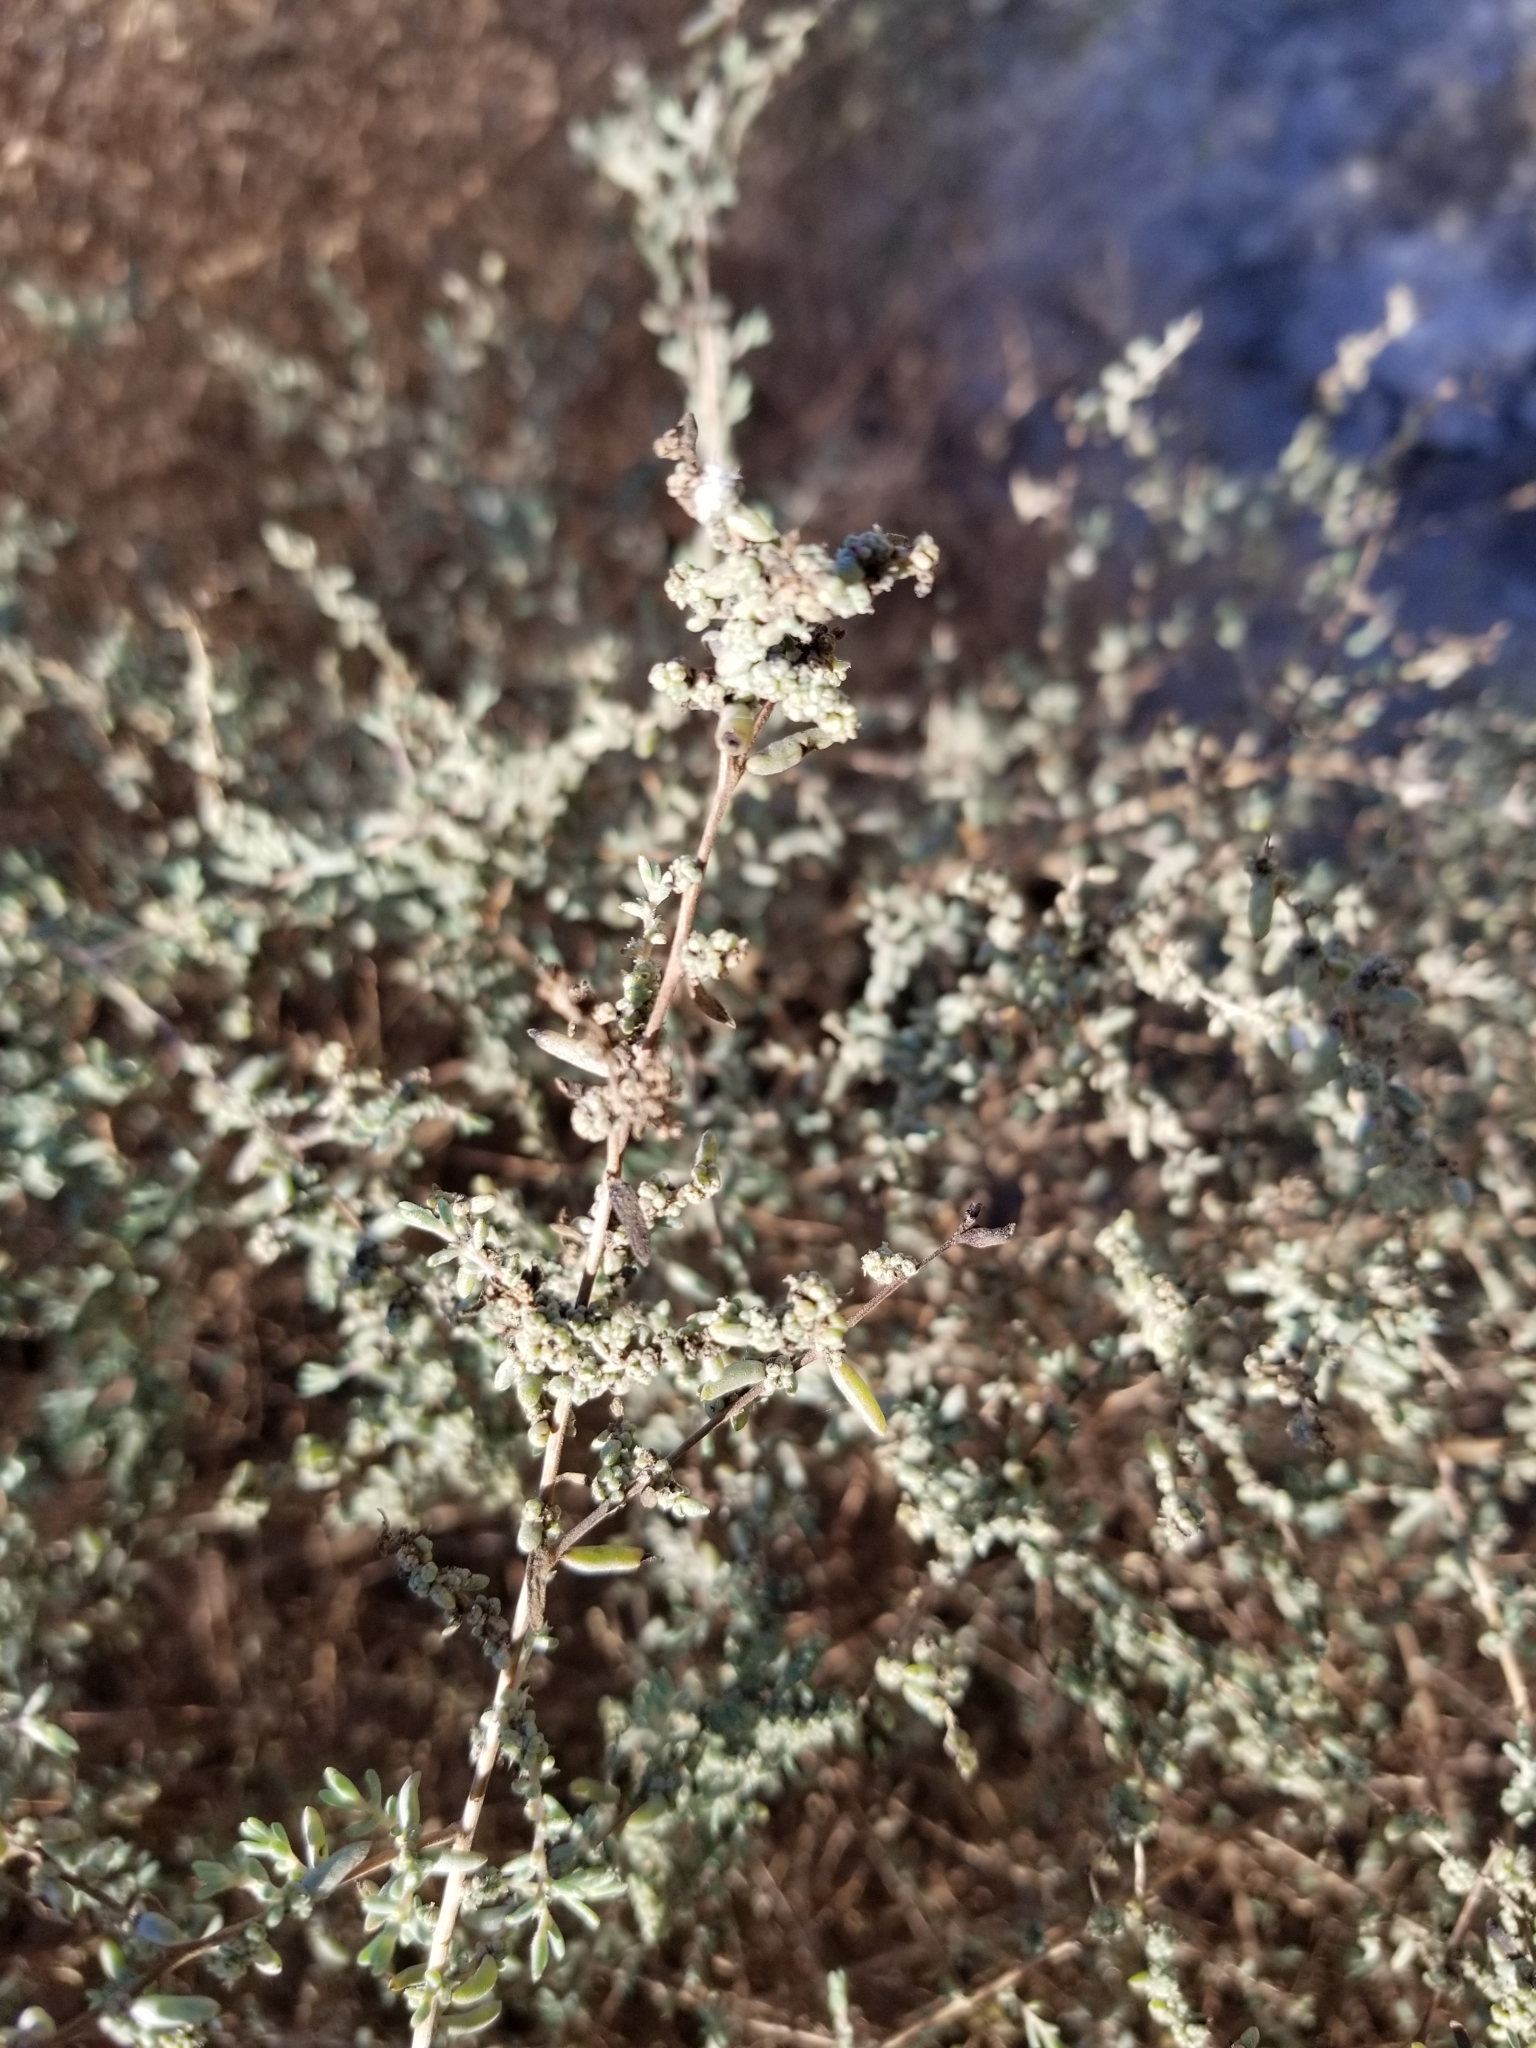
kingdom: Plantae
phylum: Tracheophyta
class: Magnoliopsida
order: Caryophyllales
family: Amaranthaceae
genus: Suaeda
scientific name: Suaeda nigra
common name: Bush seepweed
